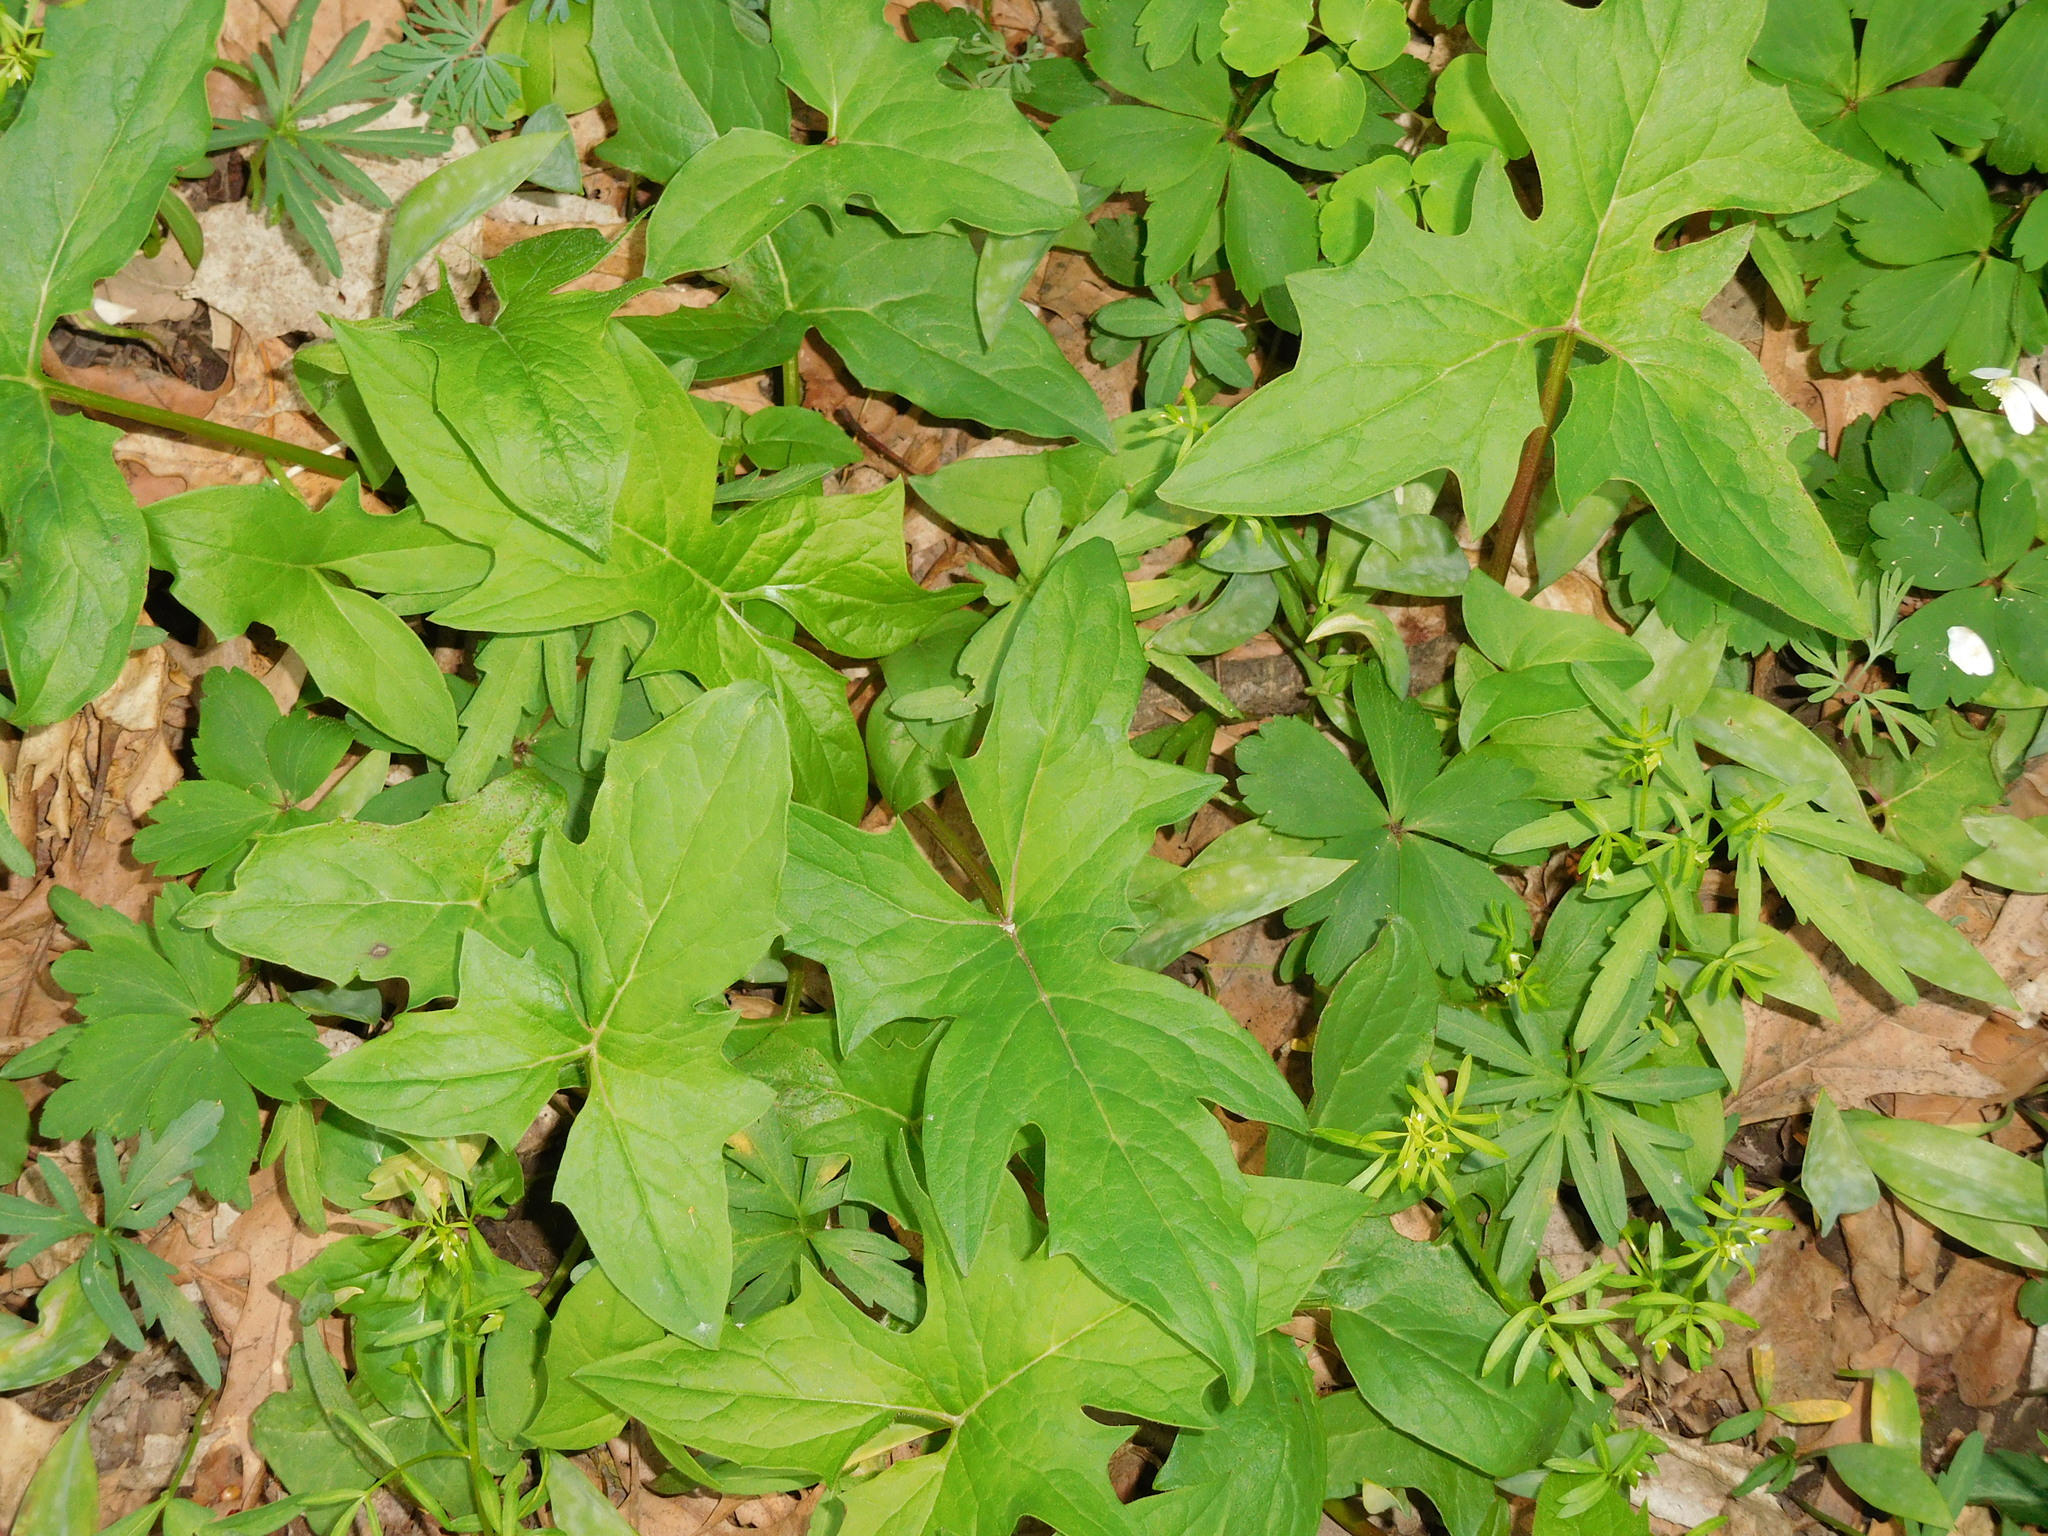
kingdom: Plantae
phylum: Tracheophyta
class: Magnoliopsida
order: Asterales
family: Asteraceae
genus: Nabalus
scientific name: Nabalus albus
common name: White rattlesnakeroot
